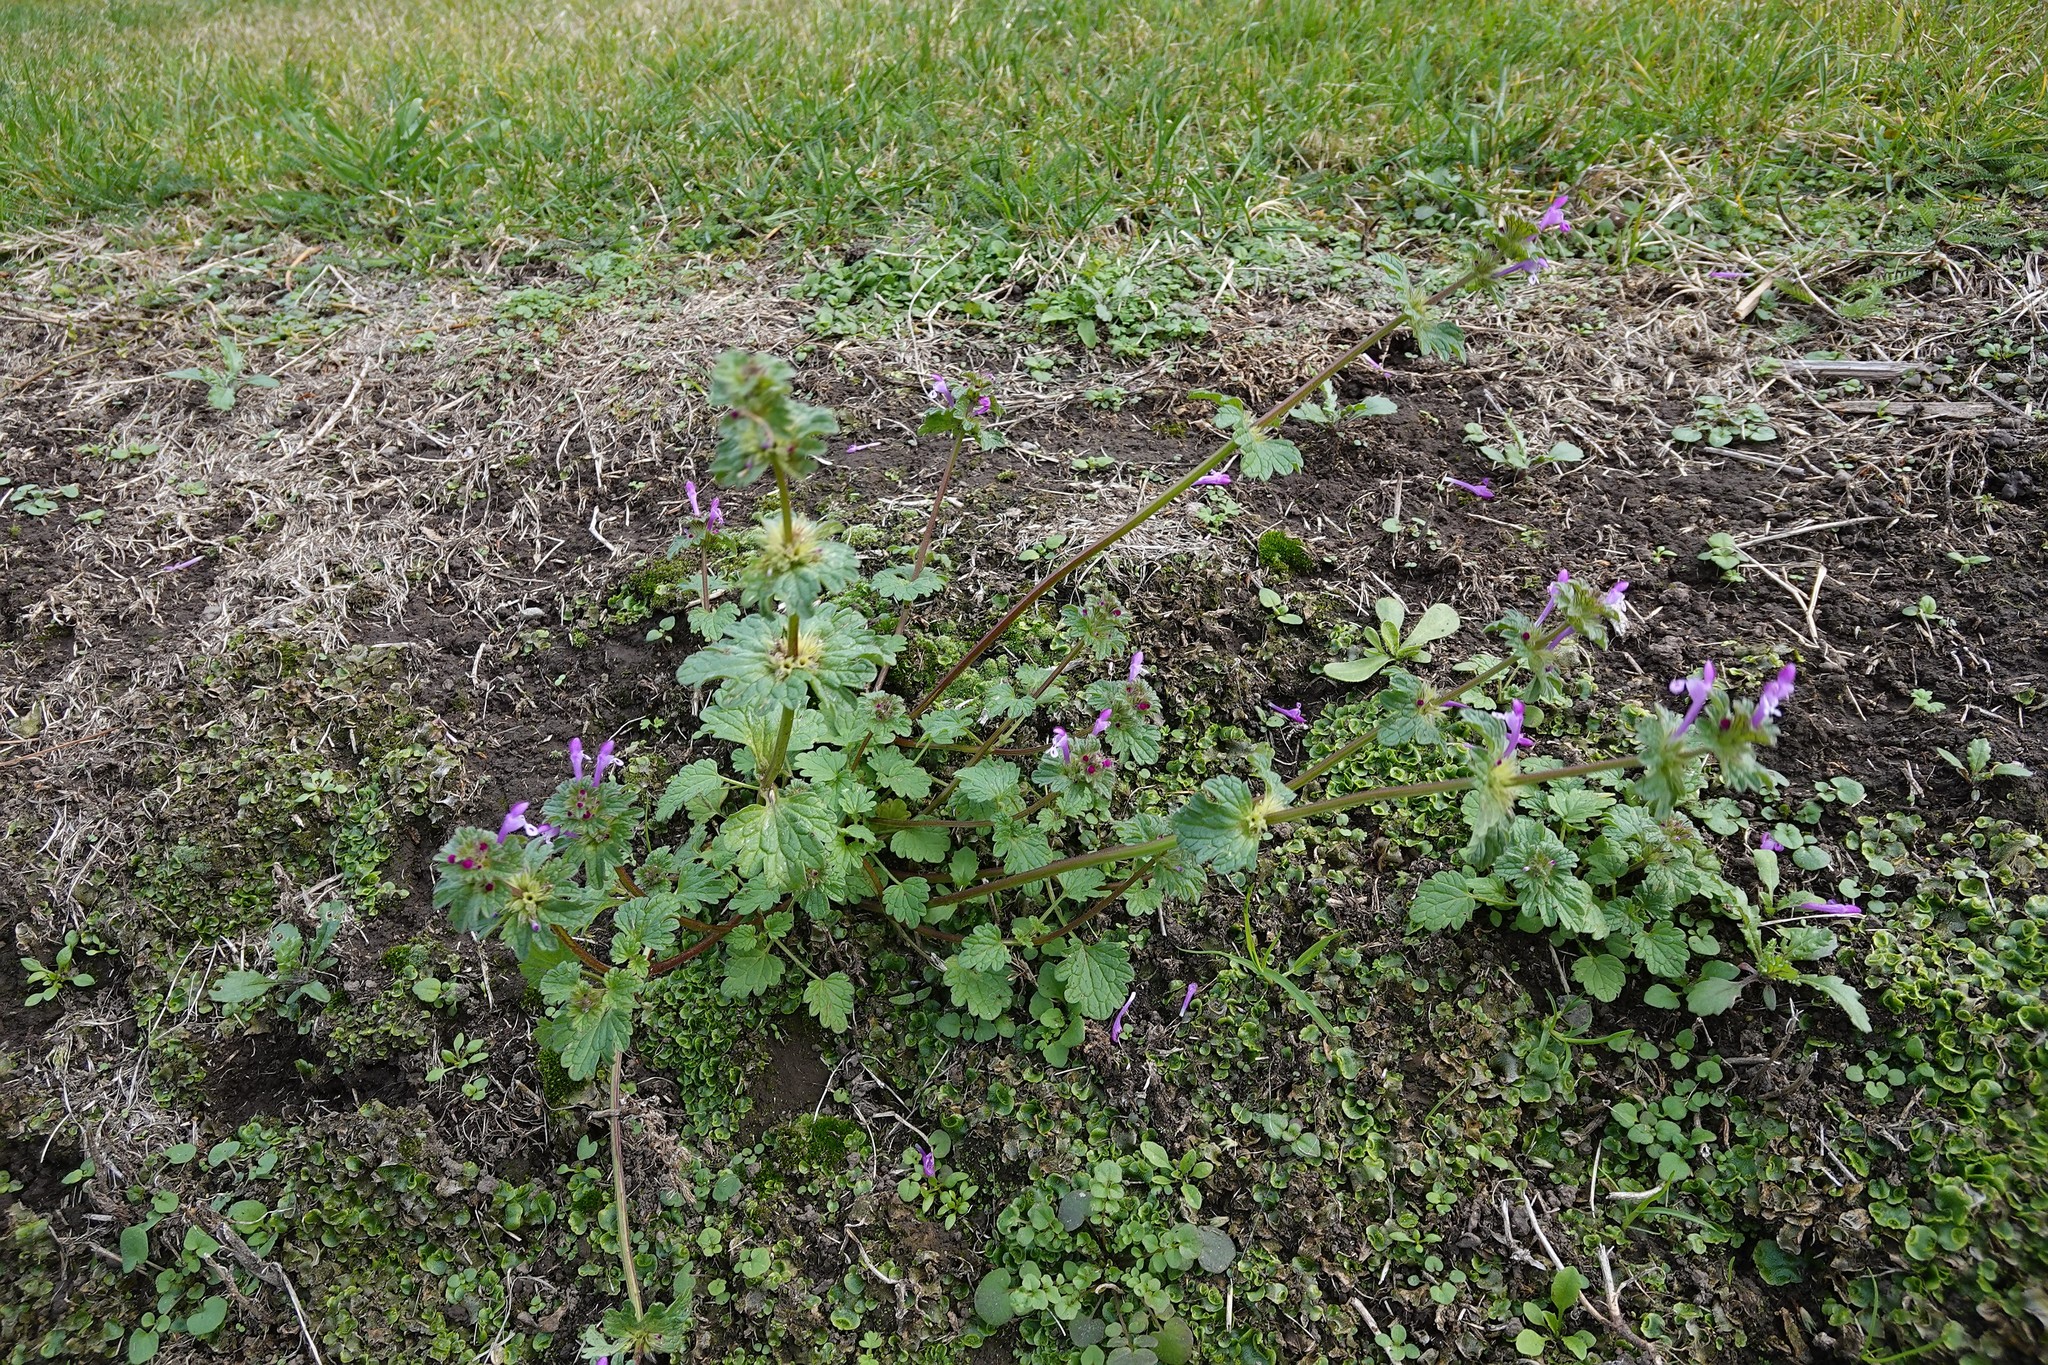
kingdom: Plantae
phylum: Tracheophyta
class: Magnoliopsida
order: Lamiales
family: Lamiaceae
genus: Lamium
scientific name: Lamium amplexicaule
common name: Henbit dead-nettle
